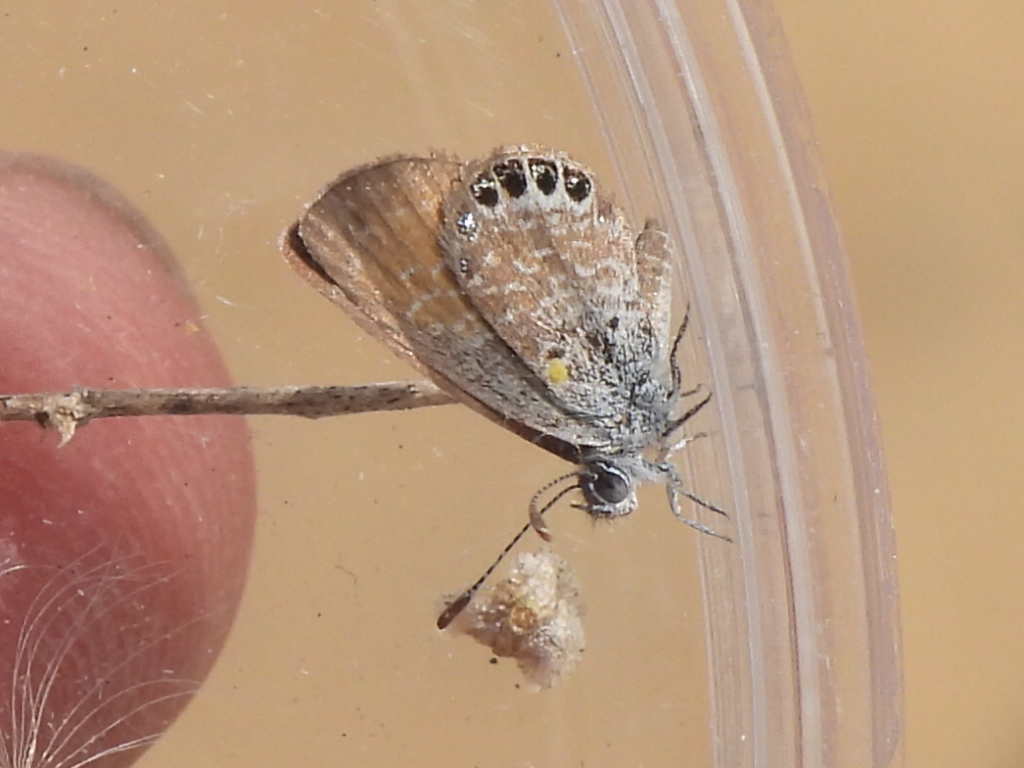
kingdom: Animalia
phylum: Arthropoda
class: Insecta
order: Lepidoptera
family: Lycaenidae
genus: Brephidium
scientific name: Brephidium exilis
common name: Pygmy blue
